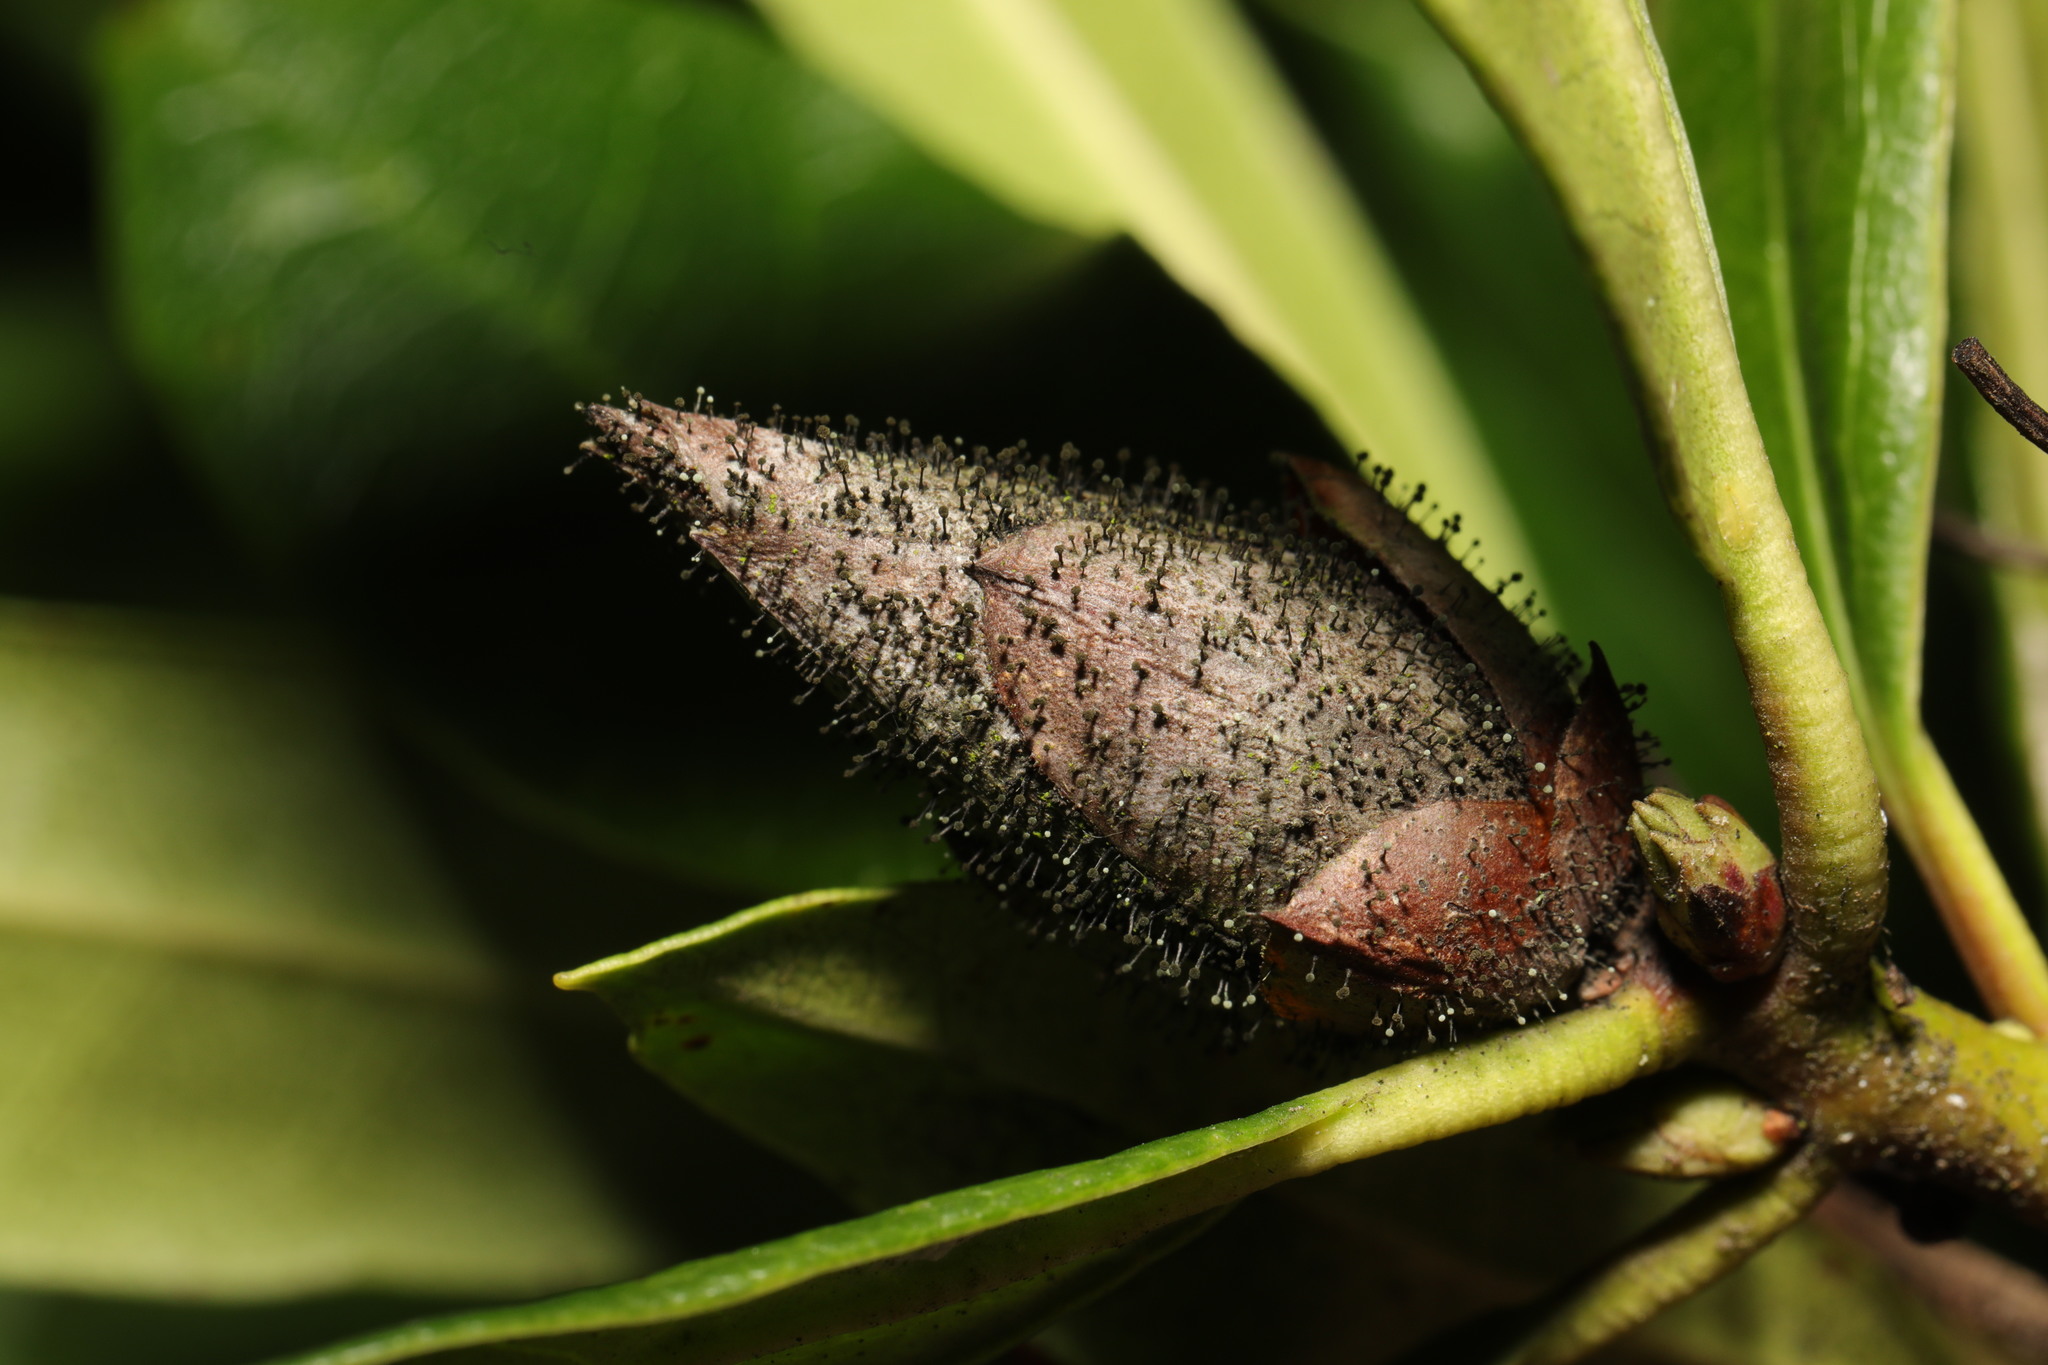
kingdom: Fungi
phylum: Ascomycota
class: Dothideomycetes
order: Pleosporales
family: Melanommataceae
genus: Seifertia
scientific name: Seifertia azaleae
